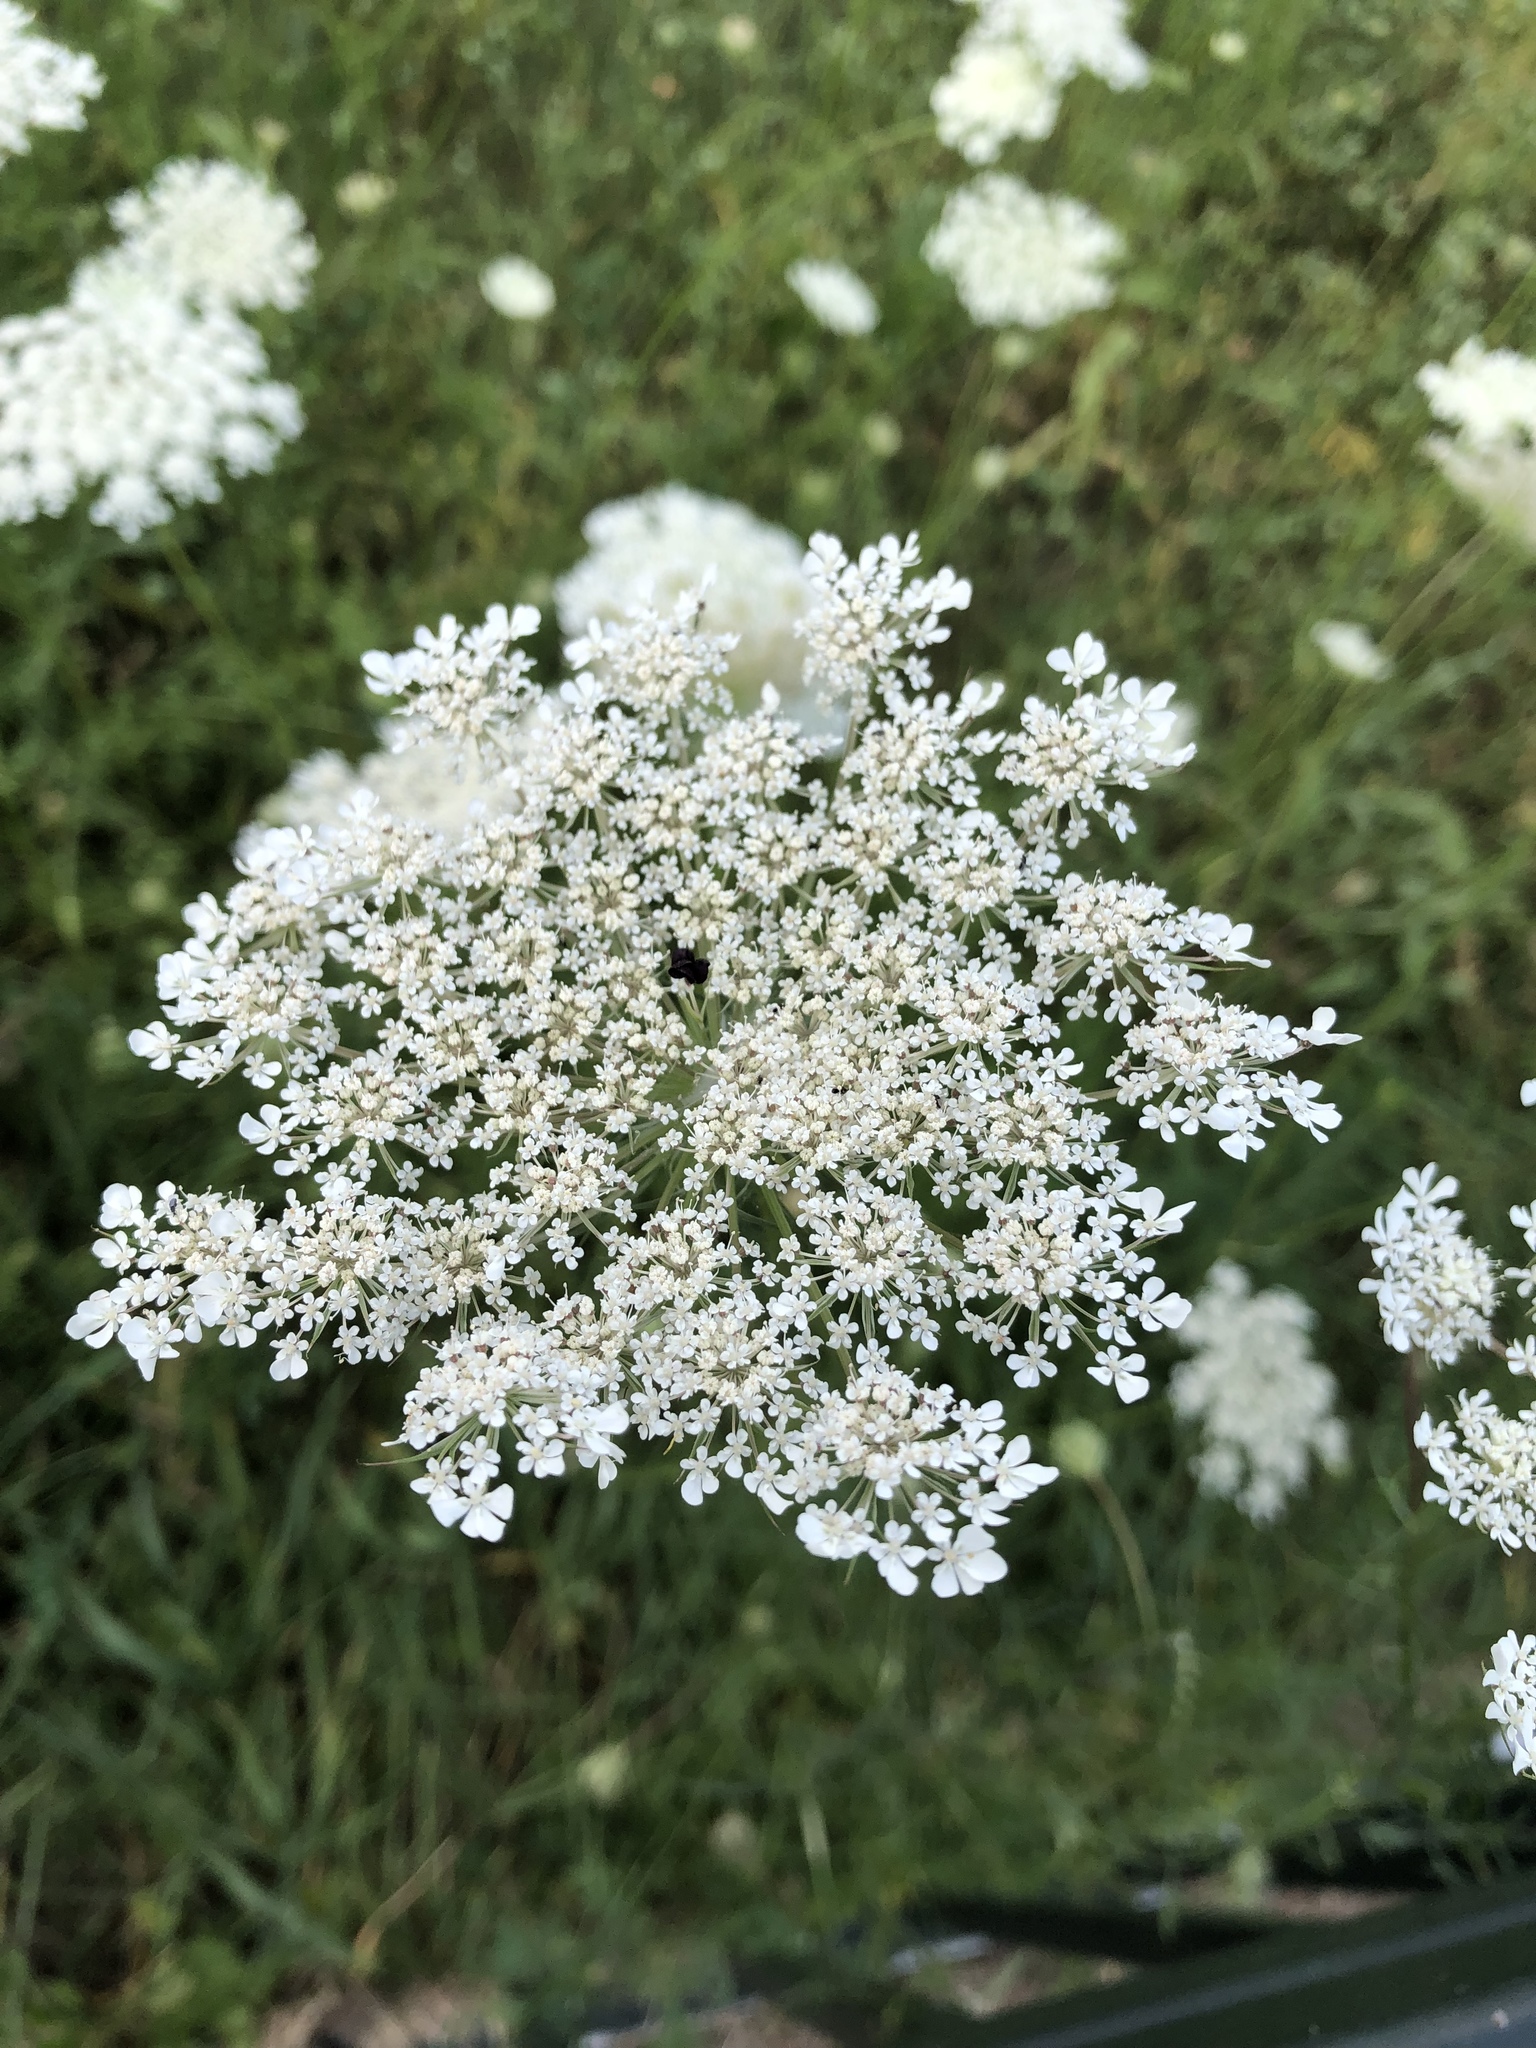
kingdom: Plantae
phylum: Tracheophyta
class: Magnoliopsida
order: Apiales
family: Apiaceae
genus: Daucus
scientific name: Daucus carota
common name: Wild carrot
